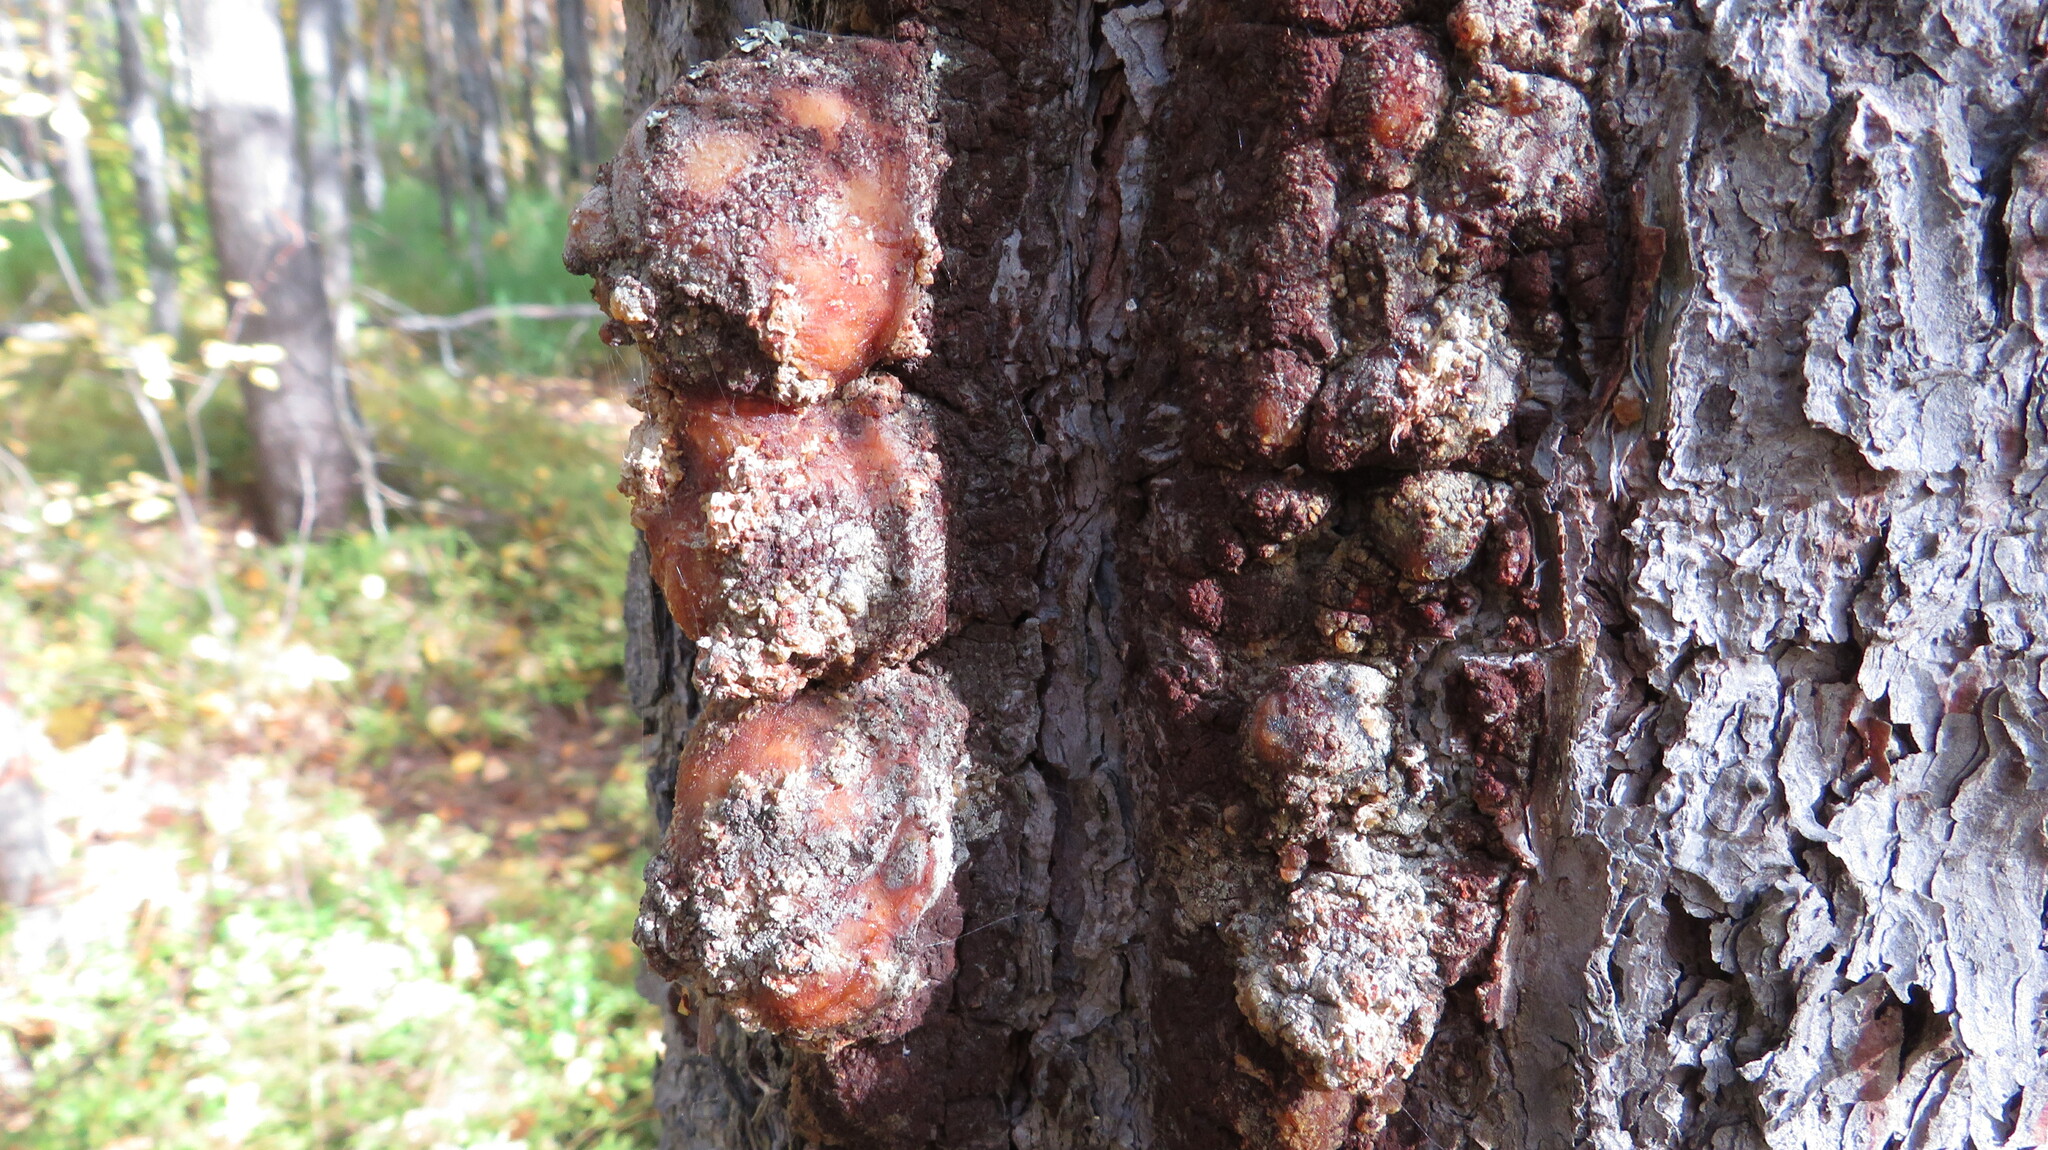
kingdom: Plantae
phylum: Tracheophyta
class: Pinopsida
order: Pinales
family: Pinaceae
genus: Picea
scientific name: Picea obovata
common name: Siberian spruce
